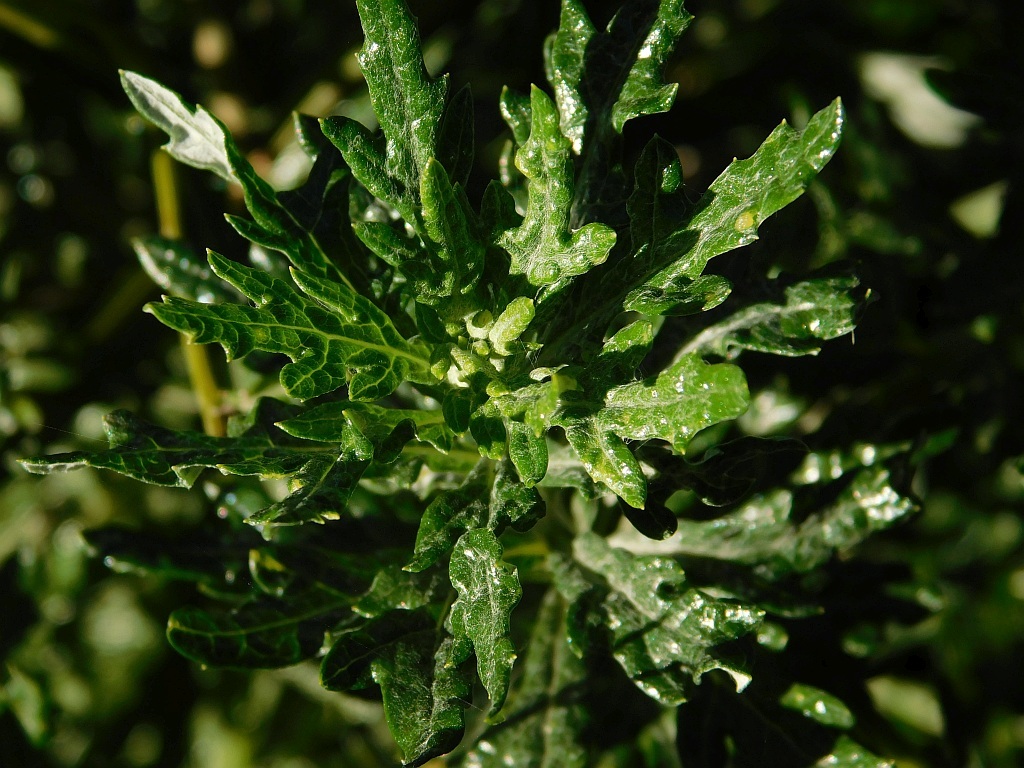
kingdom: Plantae
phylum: Tracheophyta
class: Magnoliopsida
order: Asterales
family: Asteraceae
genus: Senecio
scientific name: Senecio pterophorus
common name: Shoddy ragwort
